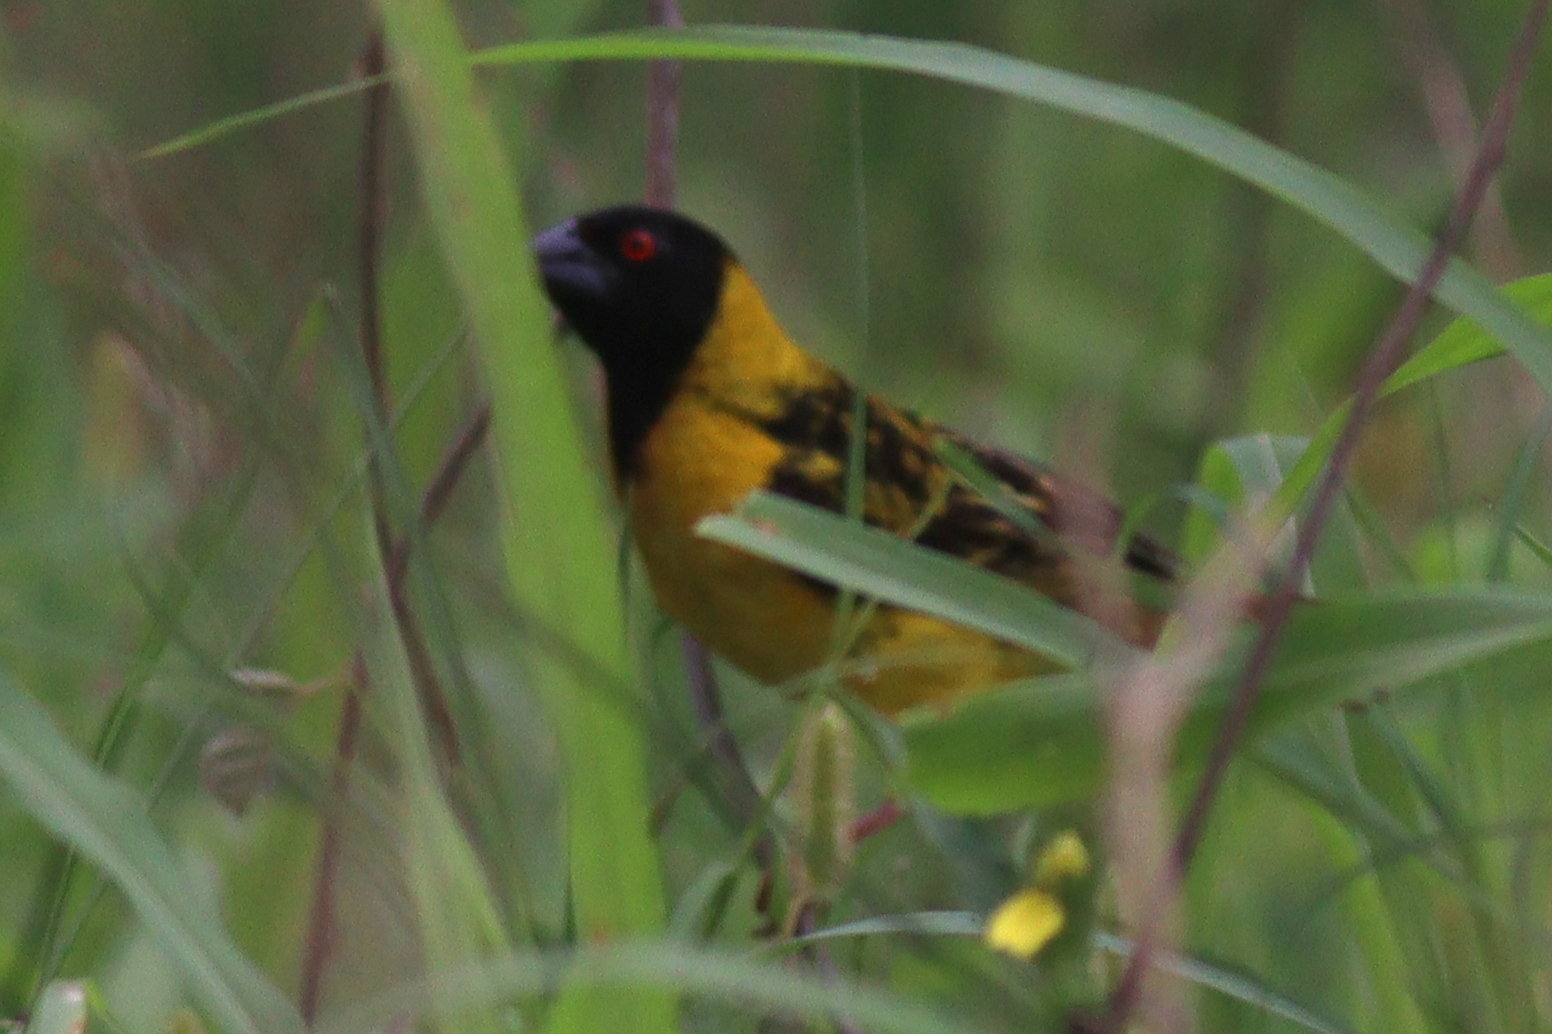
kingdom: Animalia
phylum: Chordata
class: Aves
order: Passeriformes
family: Ploceidae
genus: Ploceus
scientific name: Ploceus cucullatus
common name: Village weaver
